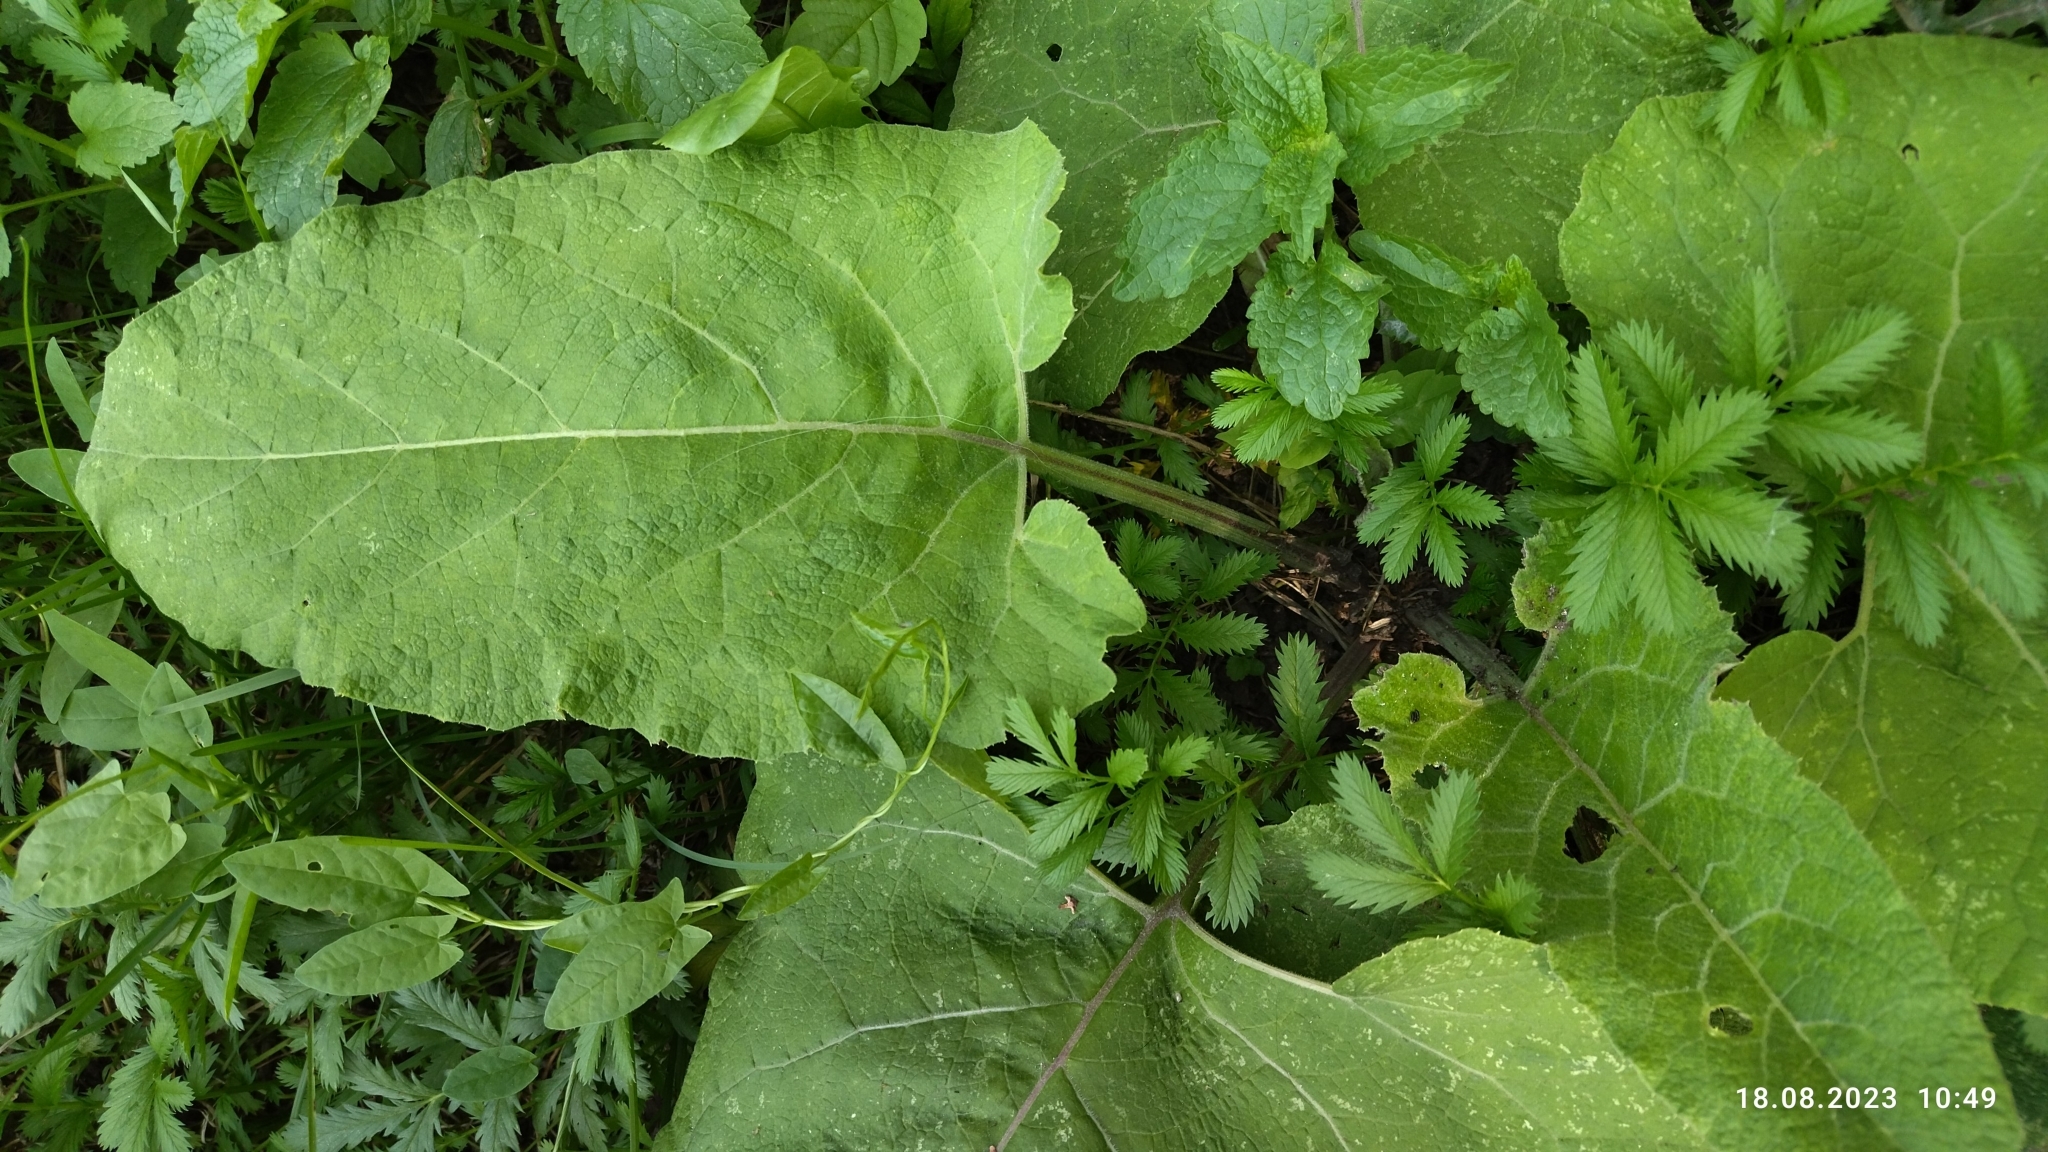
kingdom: Plantae
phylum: Tracheophyta
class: Magnoliopsida
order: Asterales
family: Asteraceae
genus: Arctium
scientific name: Arctium
